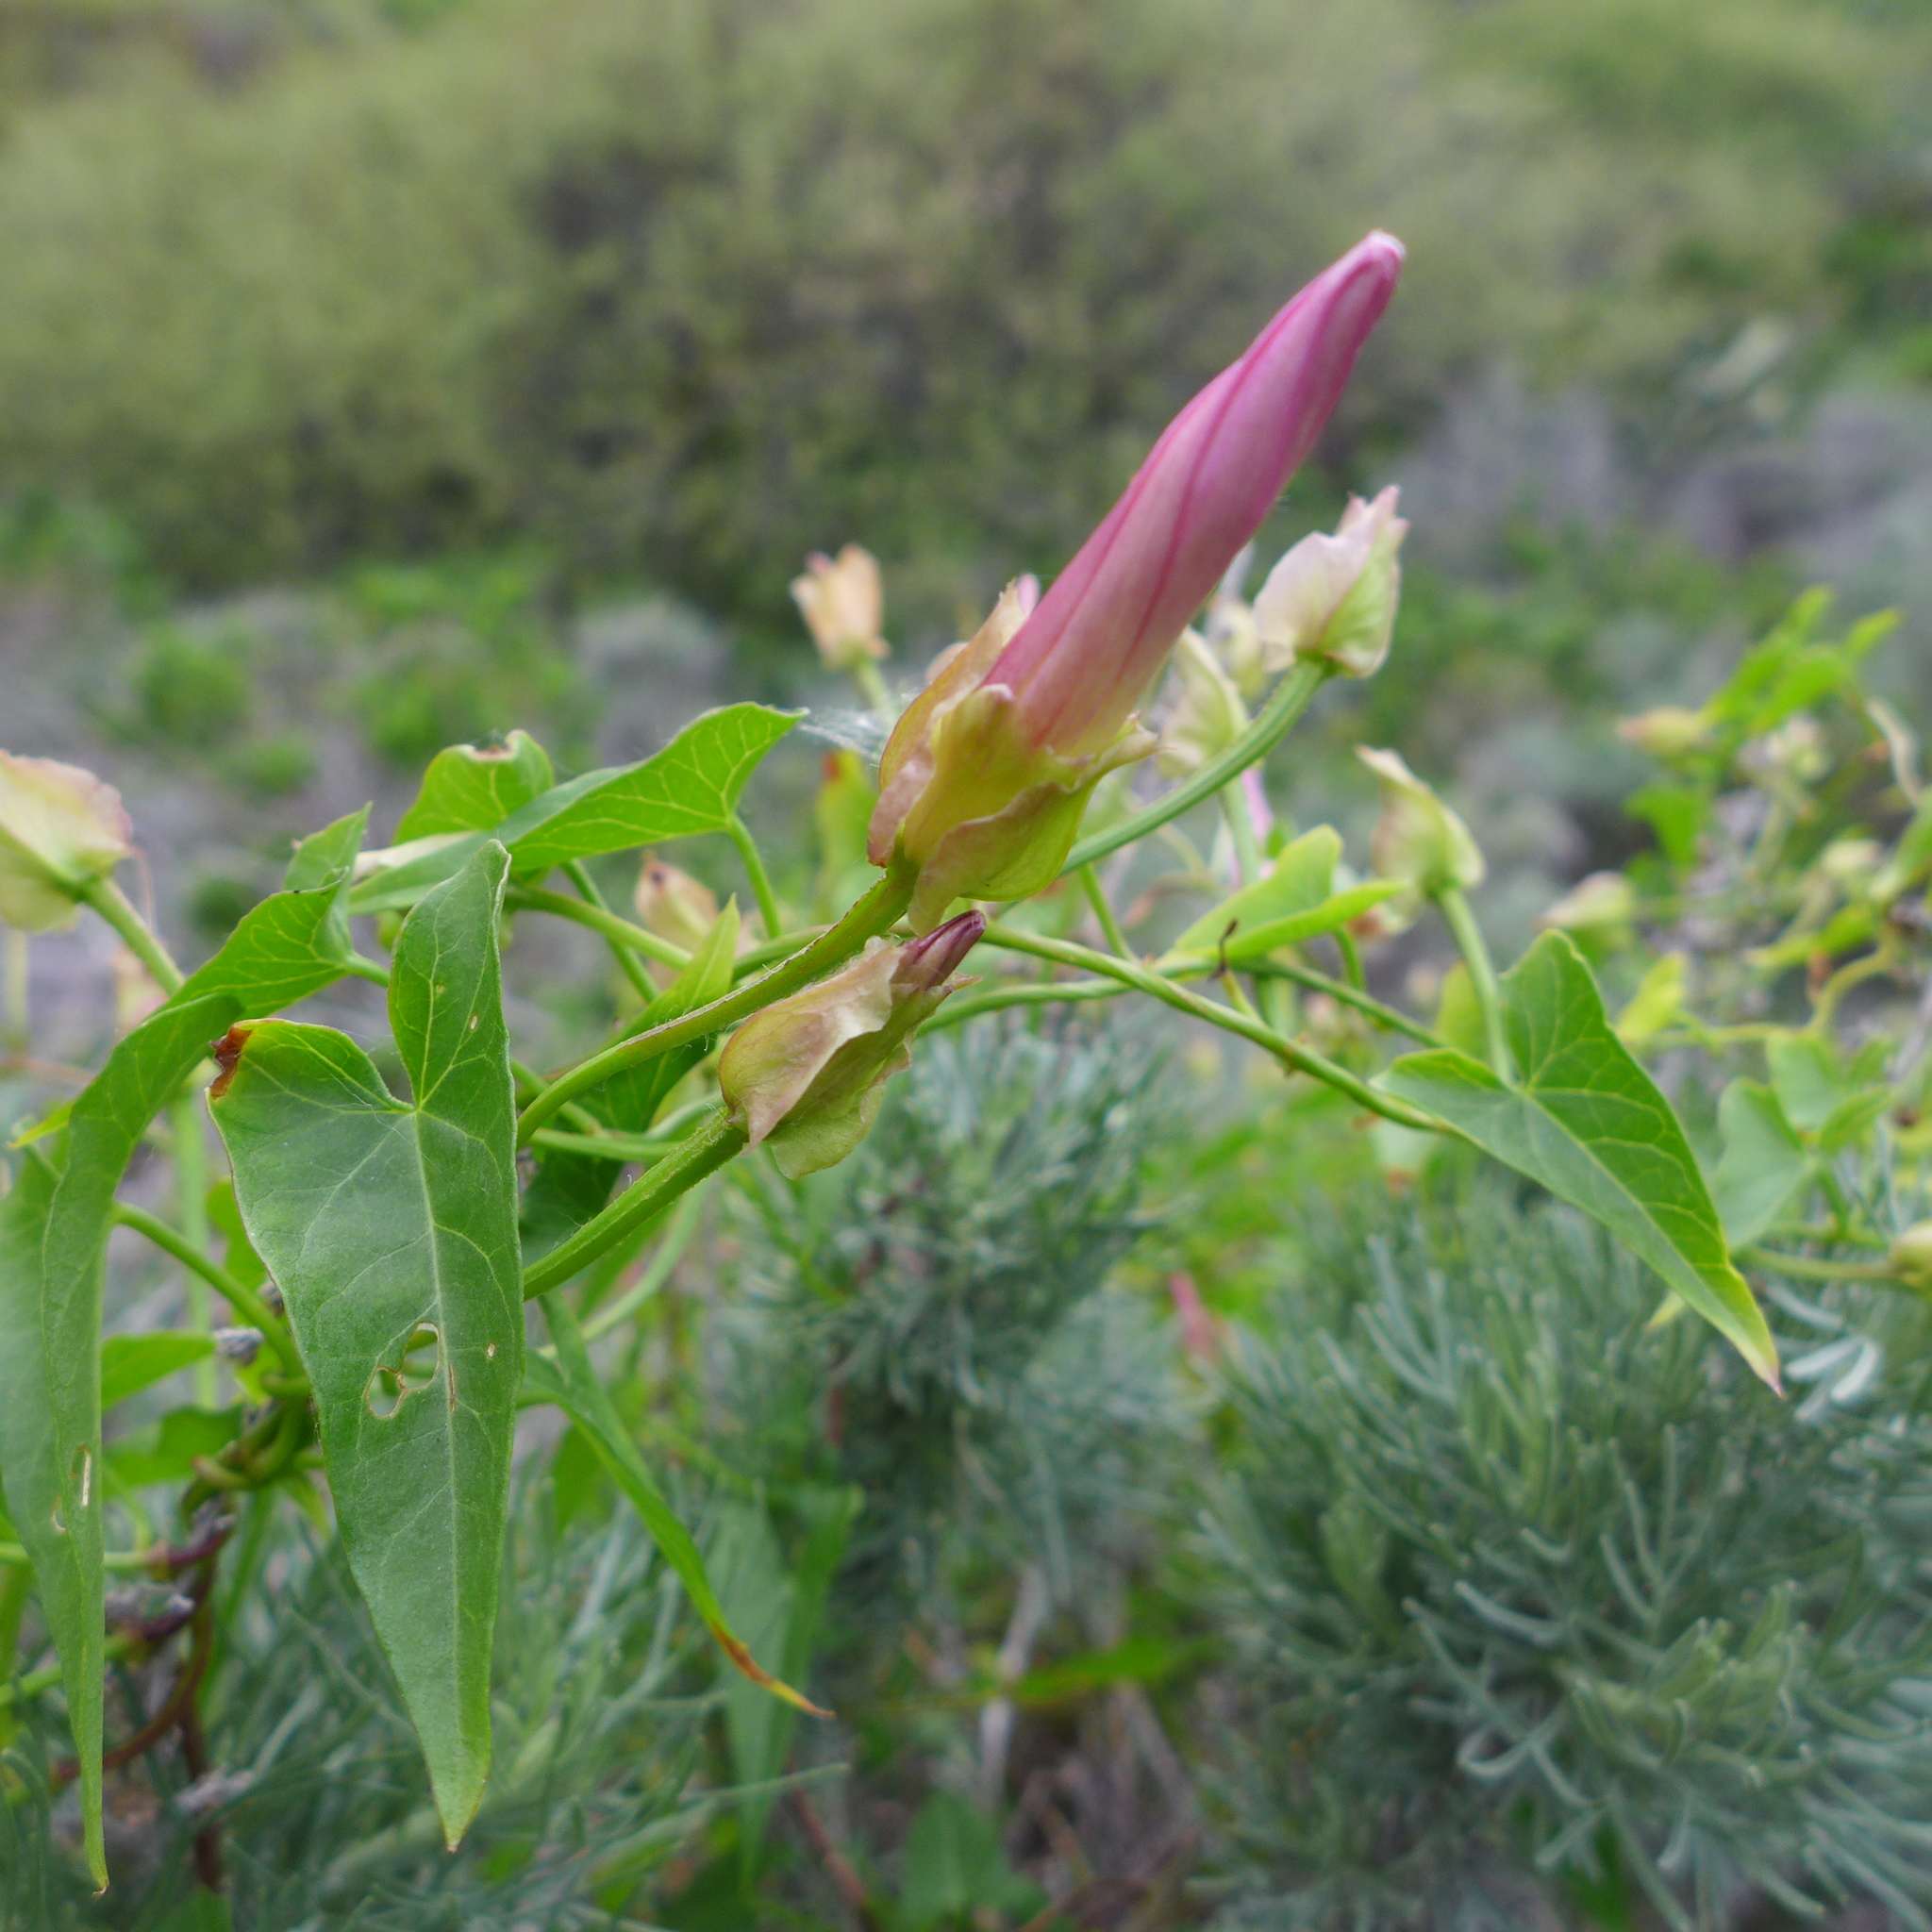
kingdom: Plantae
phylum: Tracheophyta
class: Magnoliopsida
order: Solanales
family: Convolvulaceae
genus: Calystegia
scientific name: Calystegia macrostegia
